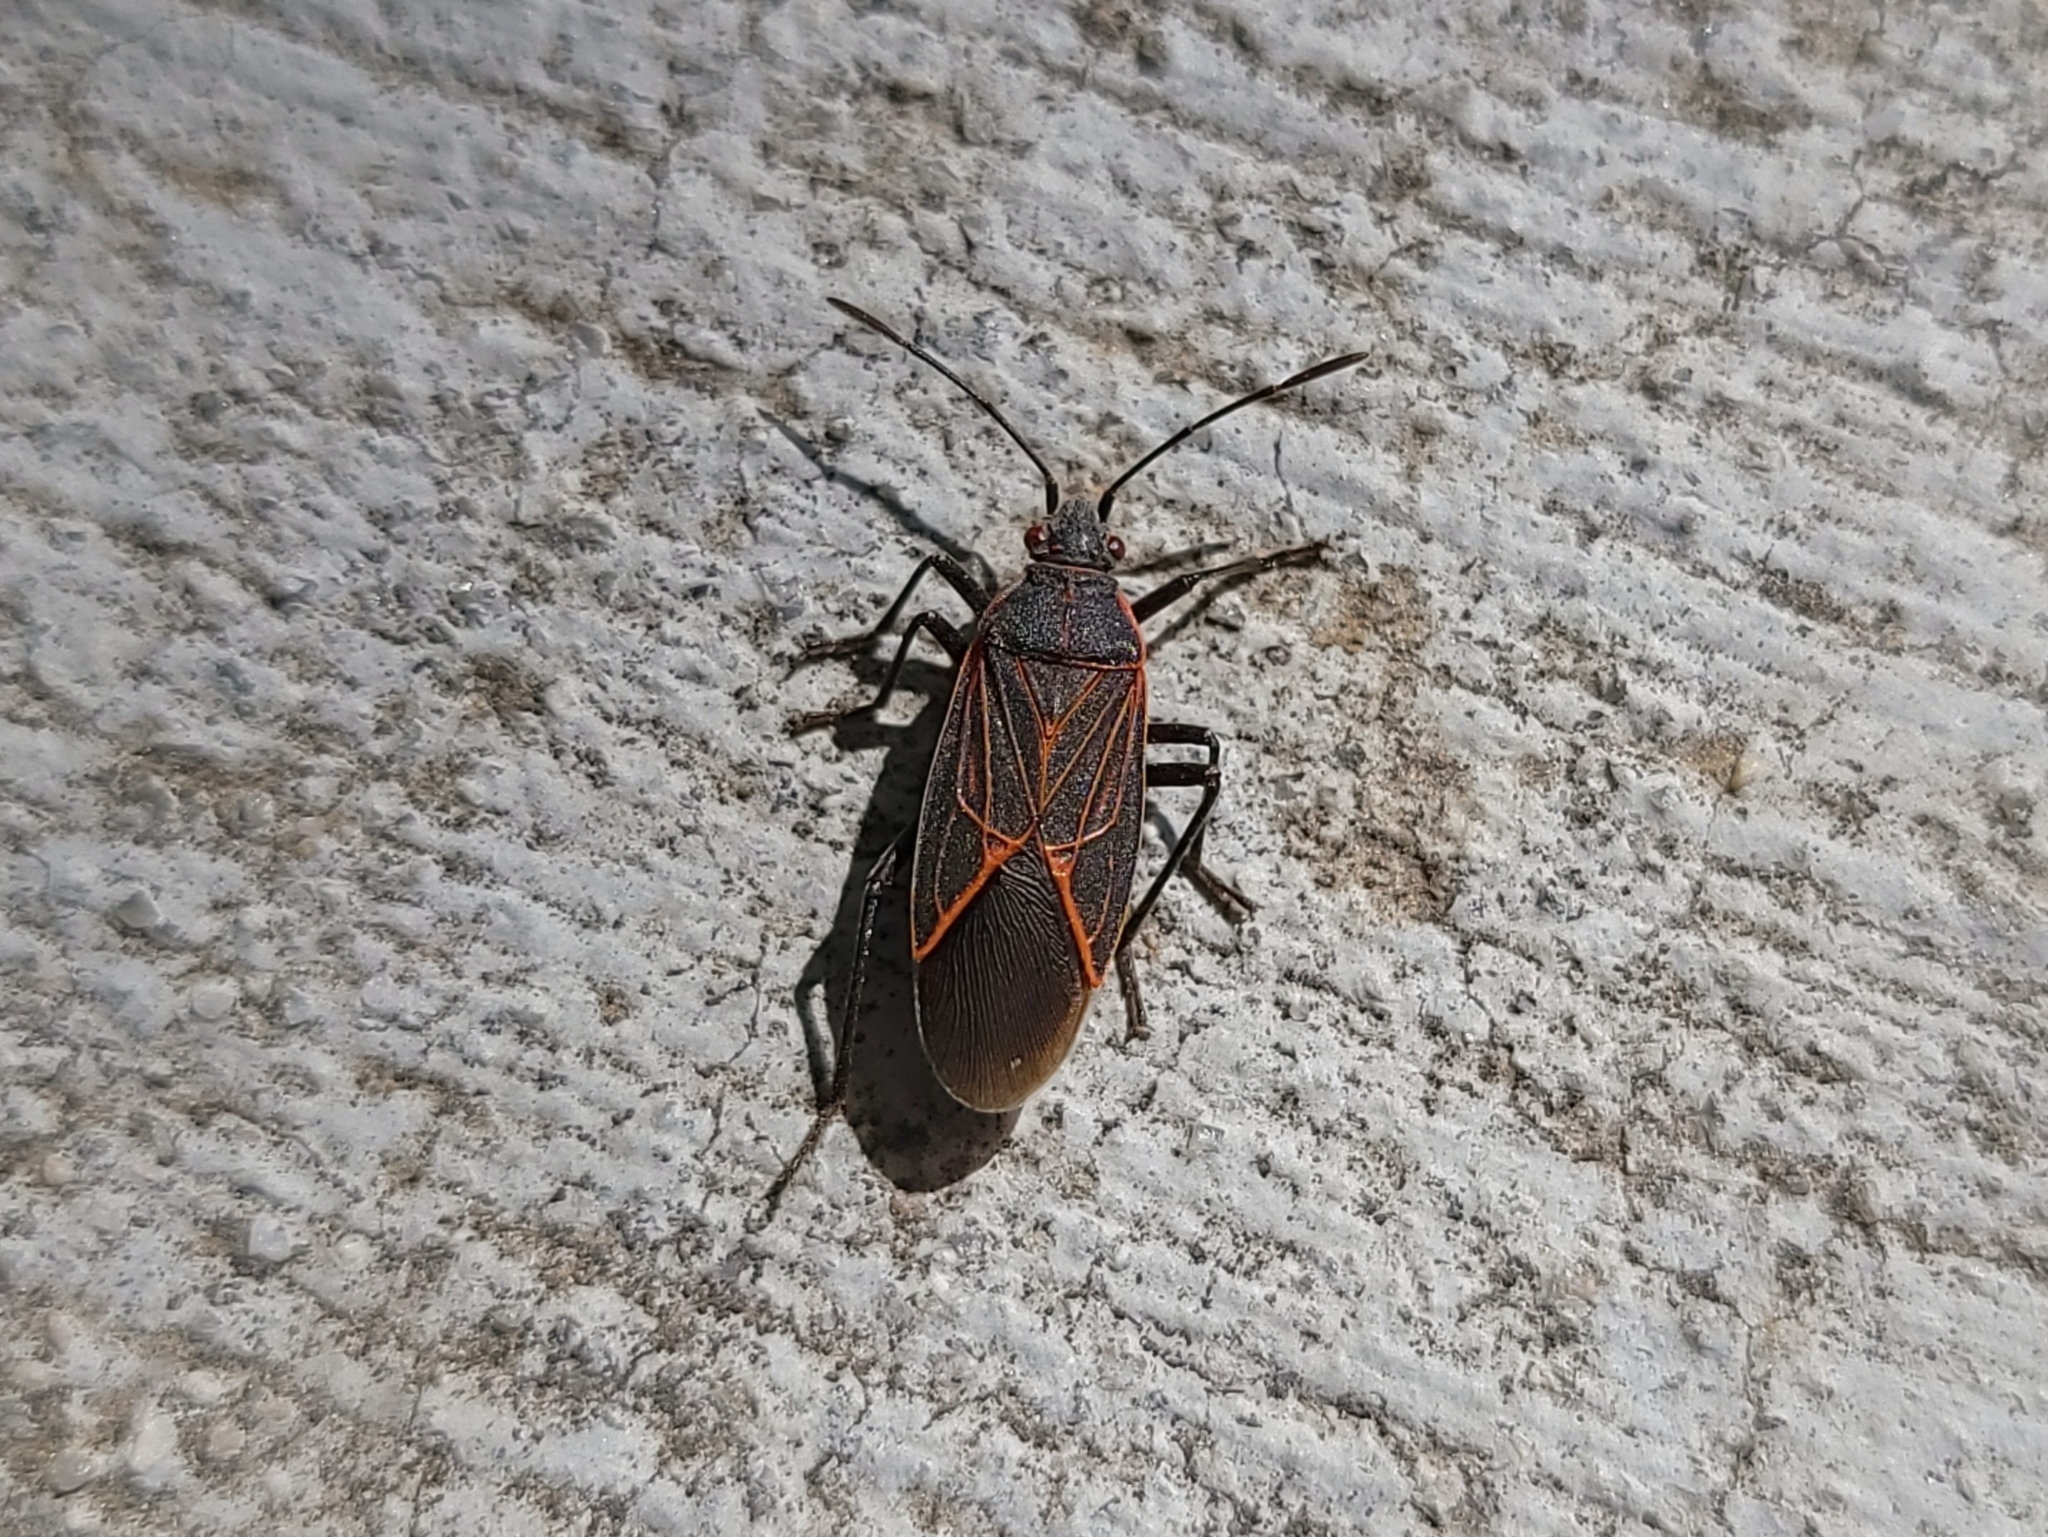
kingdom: Animalia
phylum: Arthropoda
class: Insecta
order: Hemiptera
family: Rhopalidae
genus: Boisea
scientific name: Boisea rubrolineata
